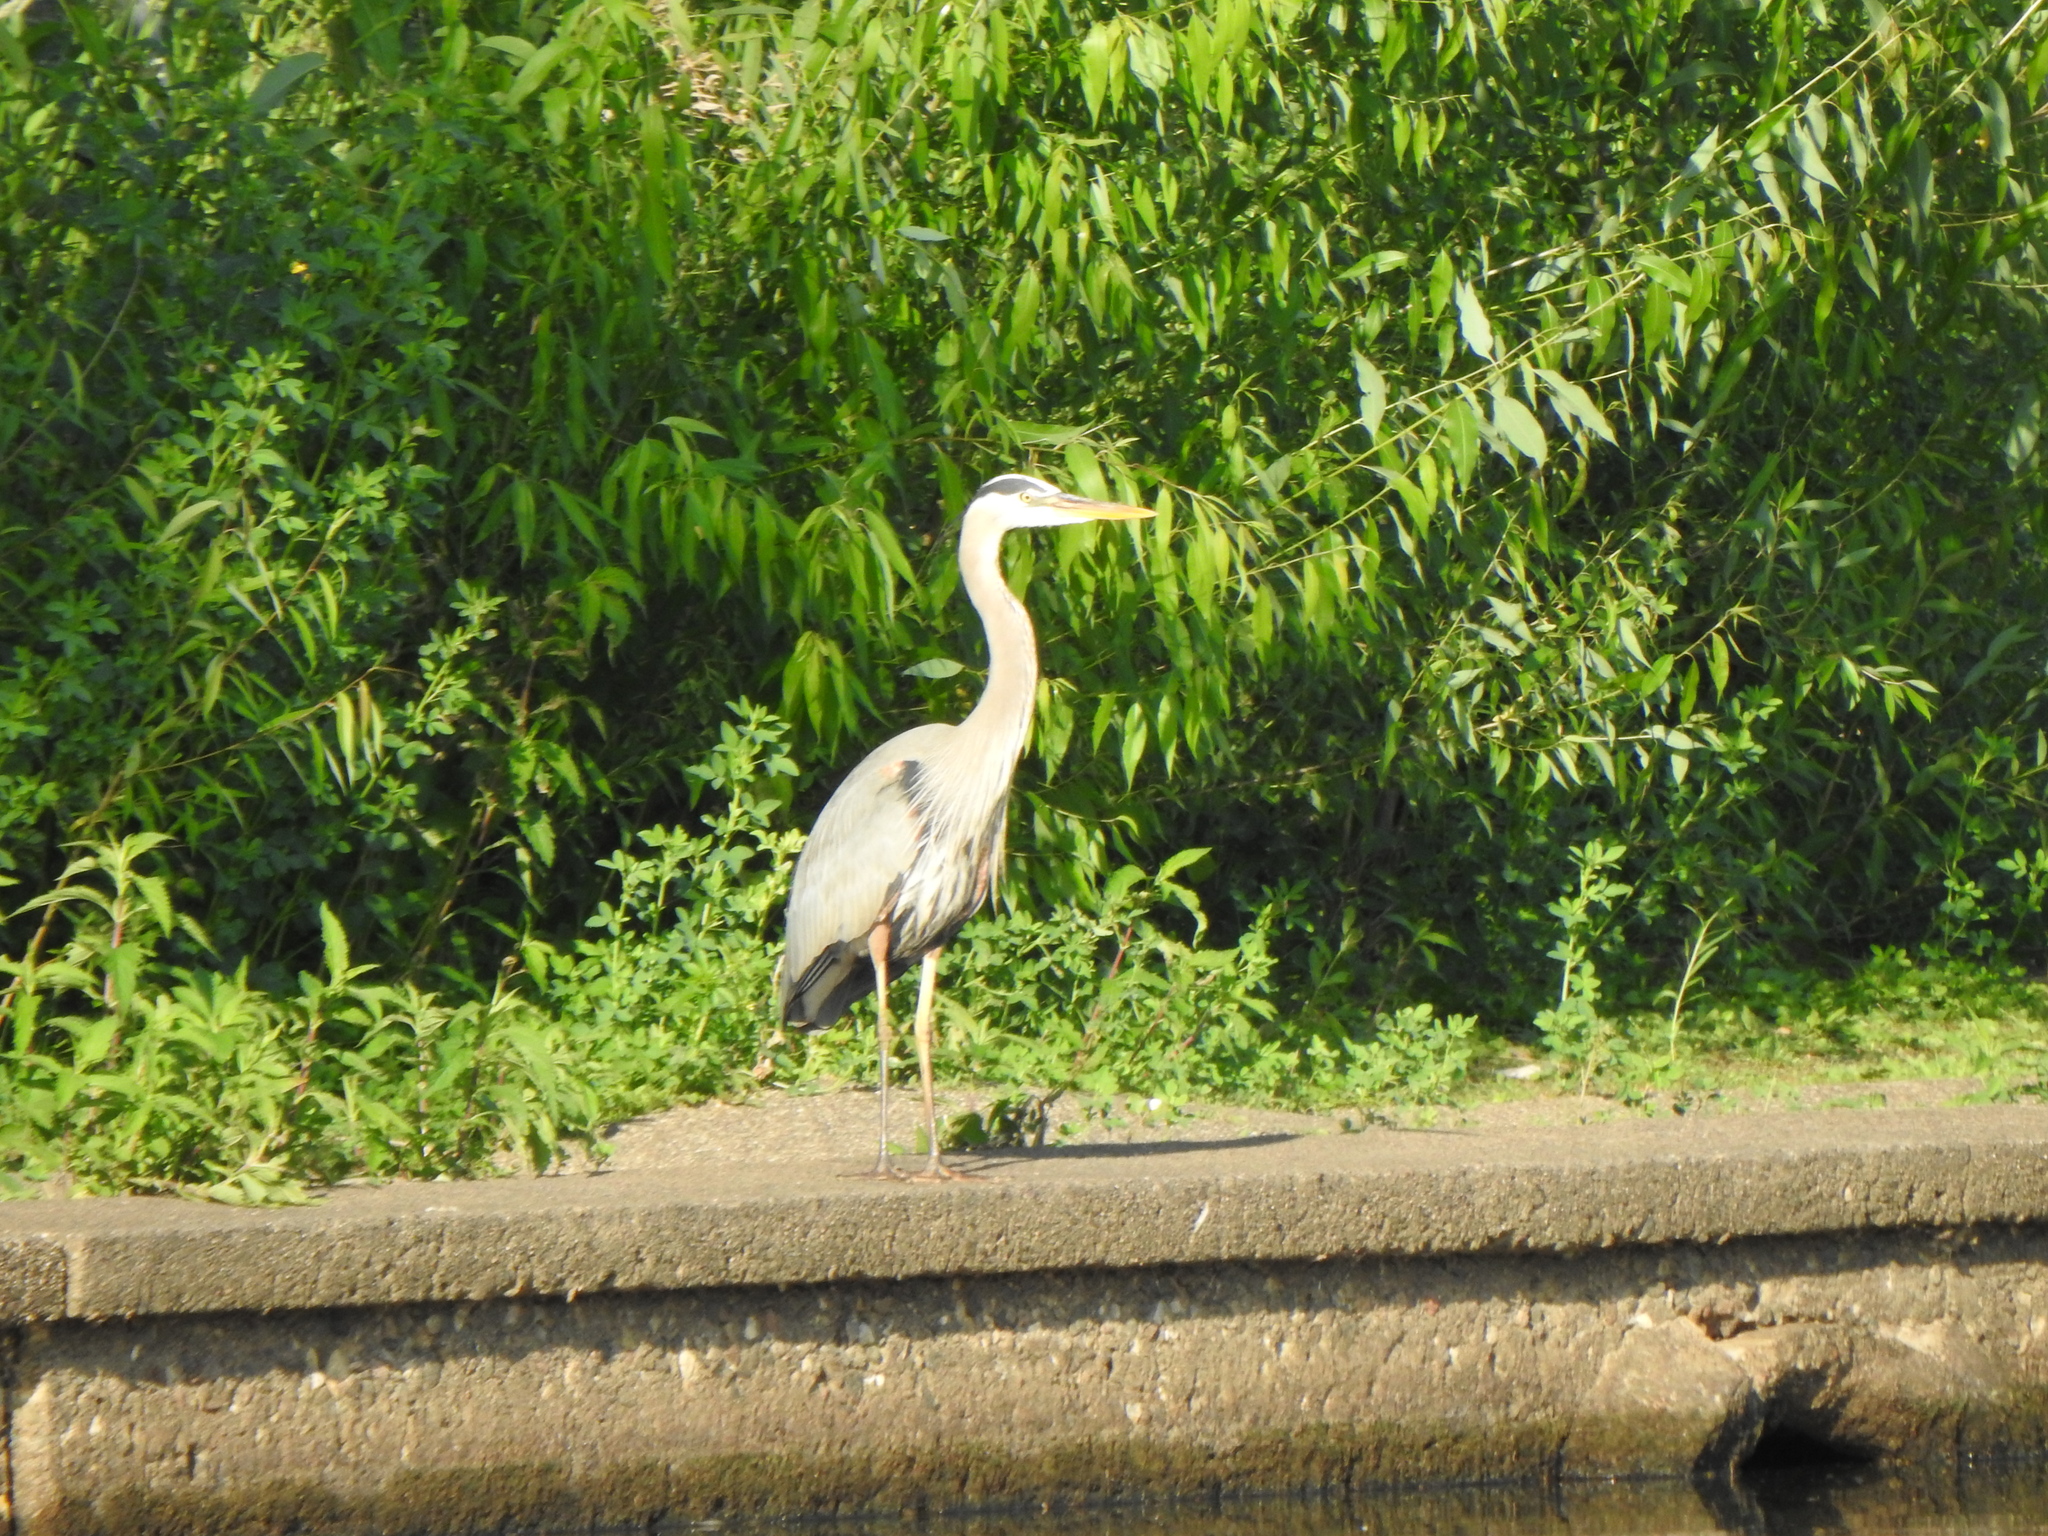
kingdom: Animalia
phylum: Chordata
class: Aves
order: Pelecaniformes
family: Ardeidae
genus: Ardea
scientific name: Ardea herodias
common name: Great blue heron
